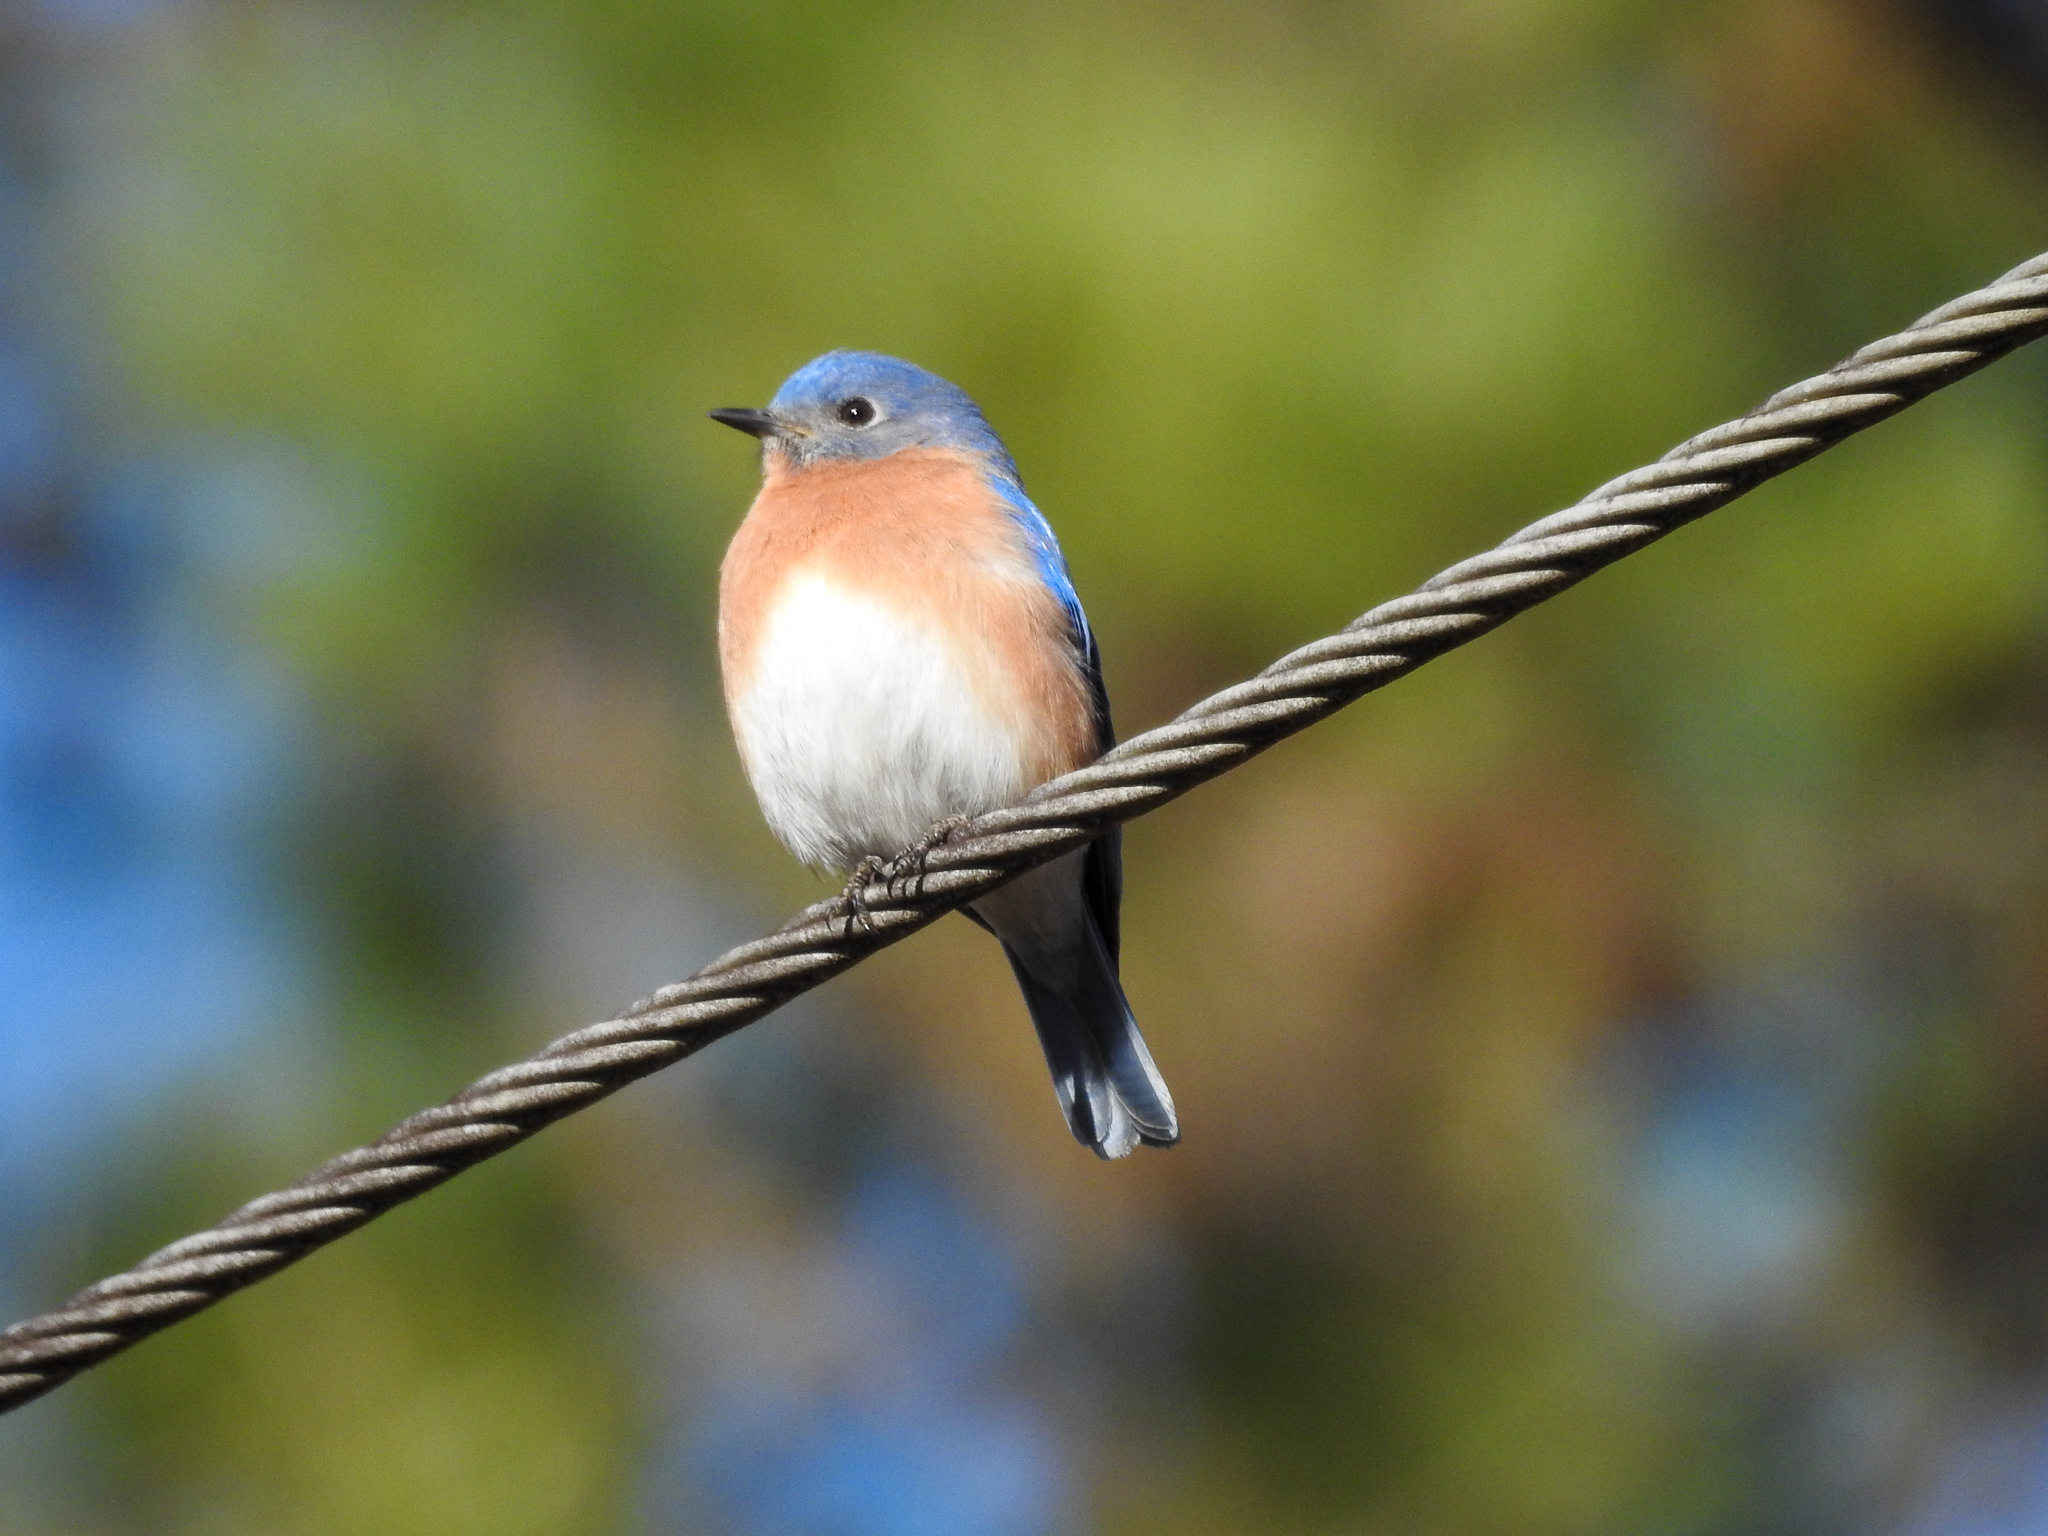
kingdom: Animalia
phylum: Chordata
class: Aves
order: Passeriformes
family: Turdidae
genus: Sialia
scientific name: Sialia sialis
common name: Eastern bluebird
